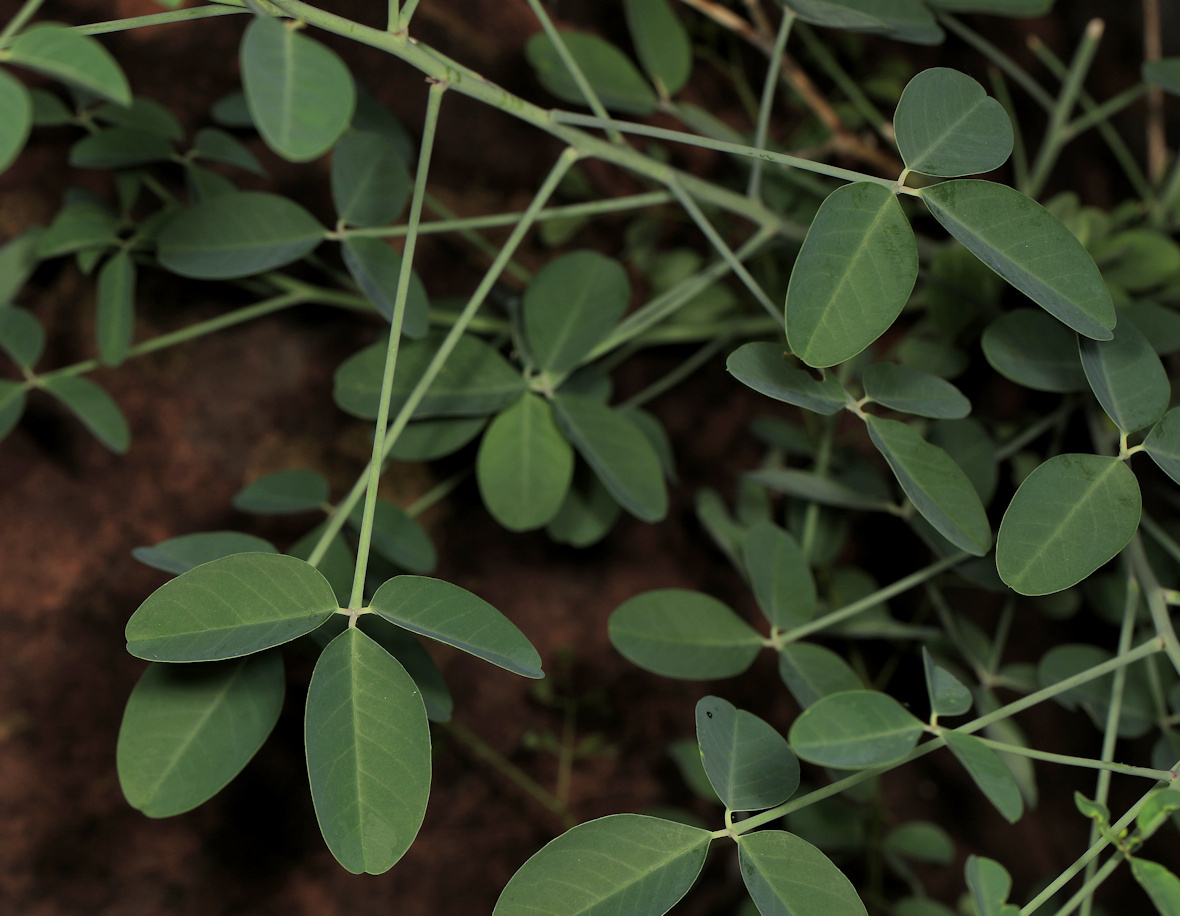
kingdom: Plantae
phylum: Tracheophyta
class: Magnoliopsida
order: Fabales
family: Fabaceae
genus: Crotalaria
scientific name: Crotalaria laburnifolia
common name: Birdflower
